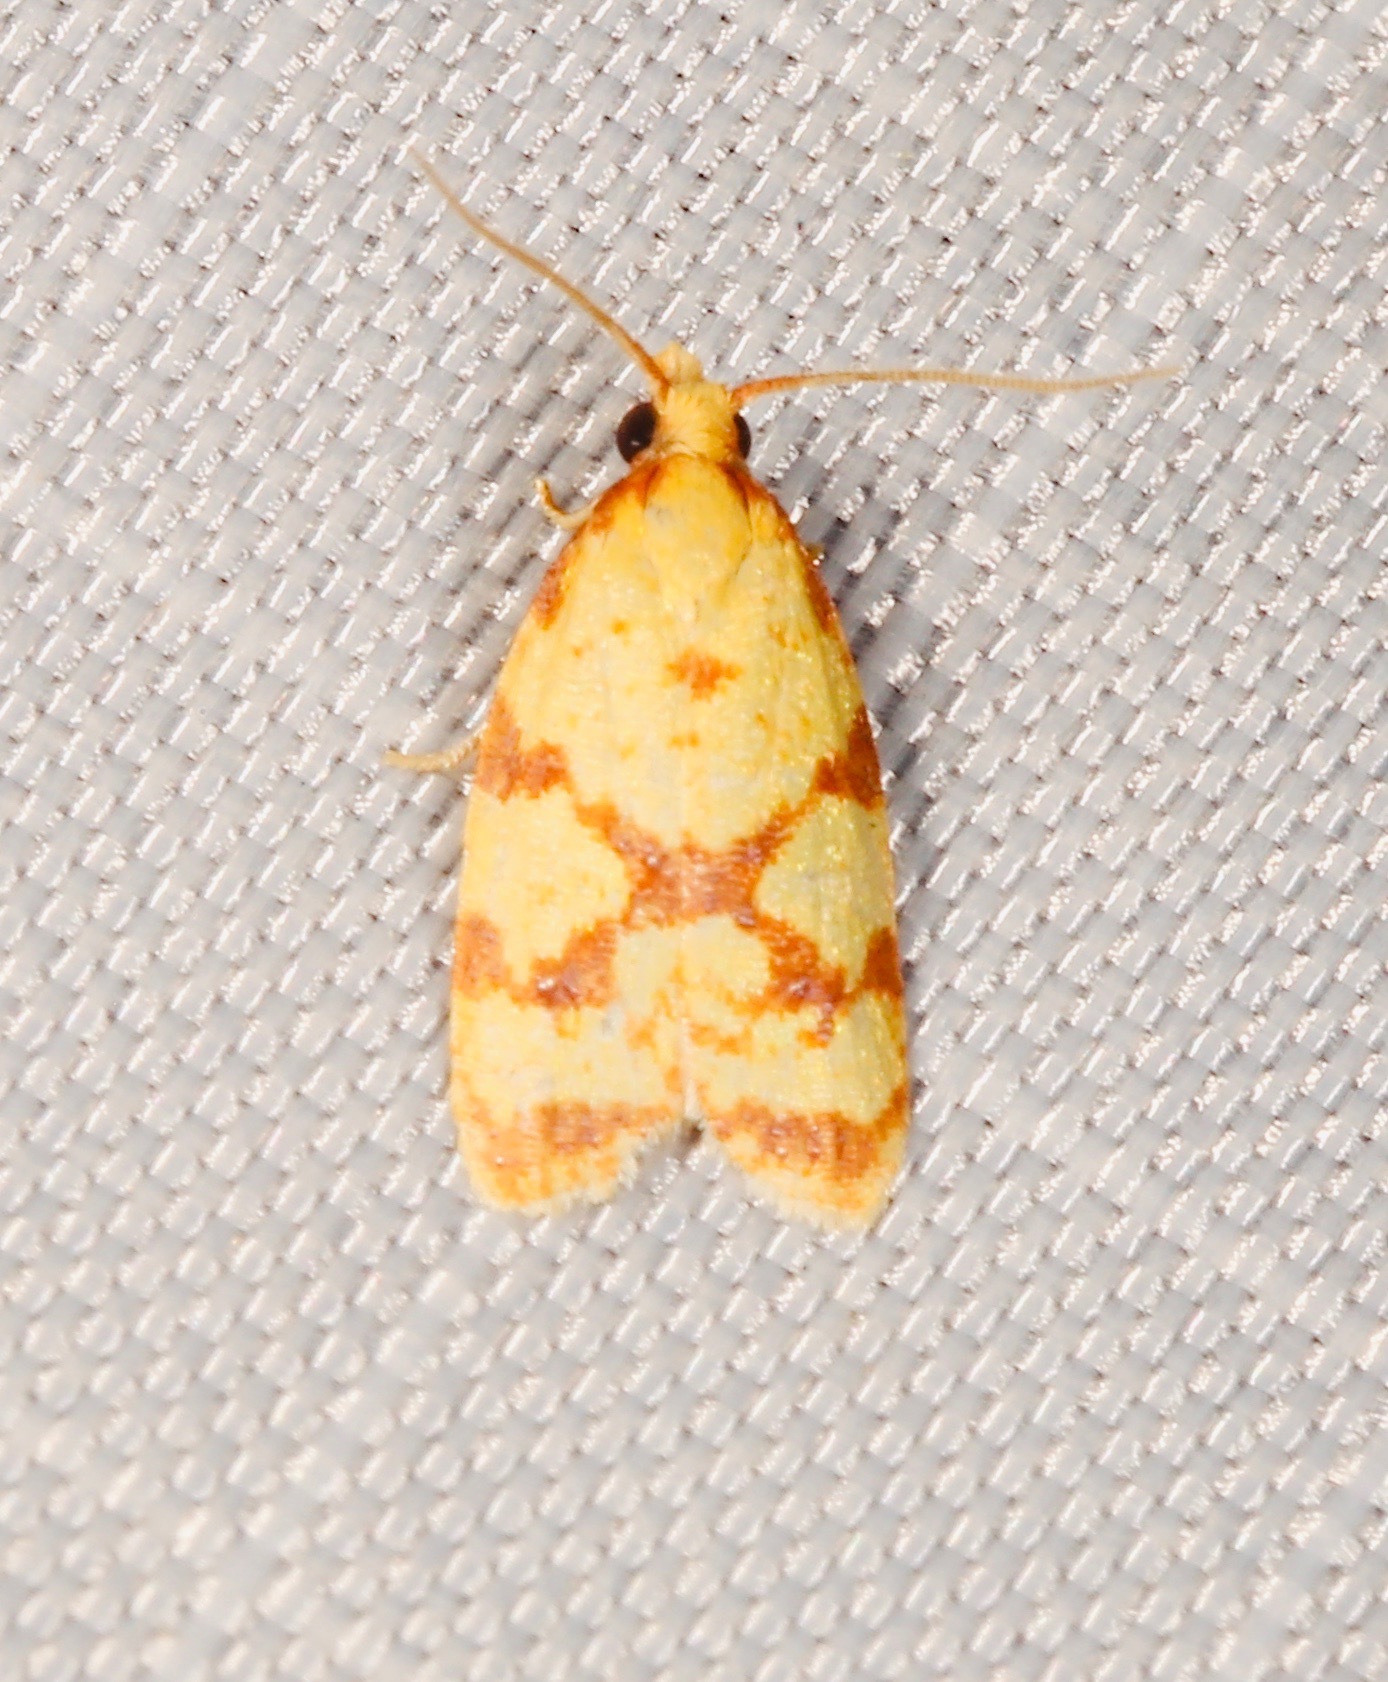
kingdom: Animalia
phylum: Arthropoda
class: Insecta
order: Lepidoptera
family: Tortricidae
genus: Sparganothis
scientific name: Sparganothis sulfureana
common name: Sparganothis fruitworm moth
